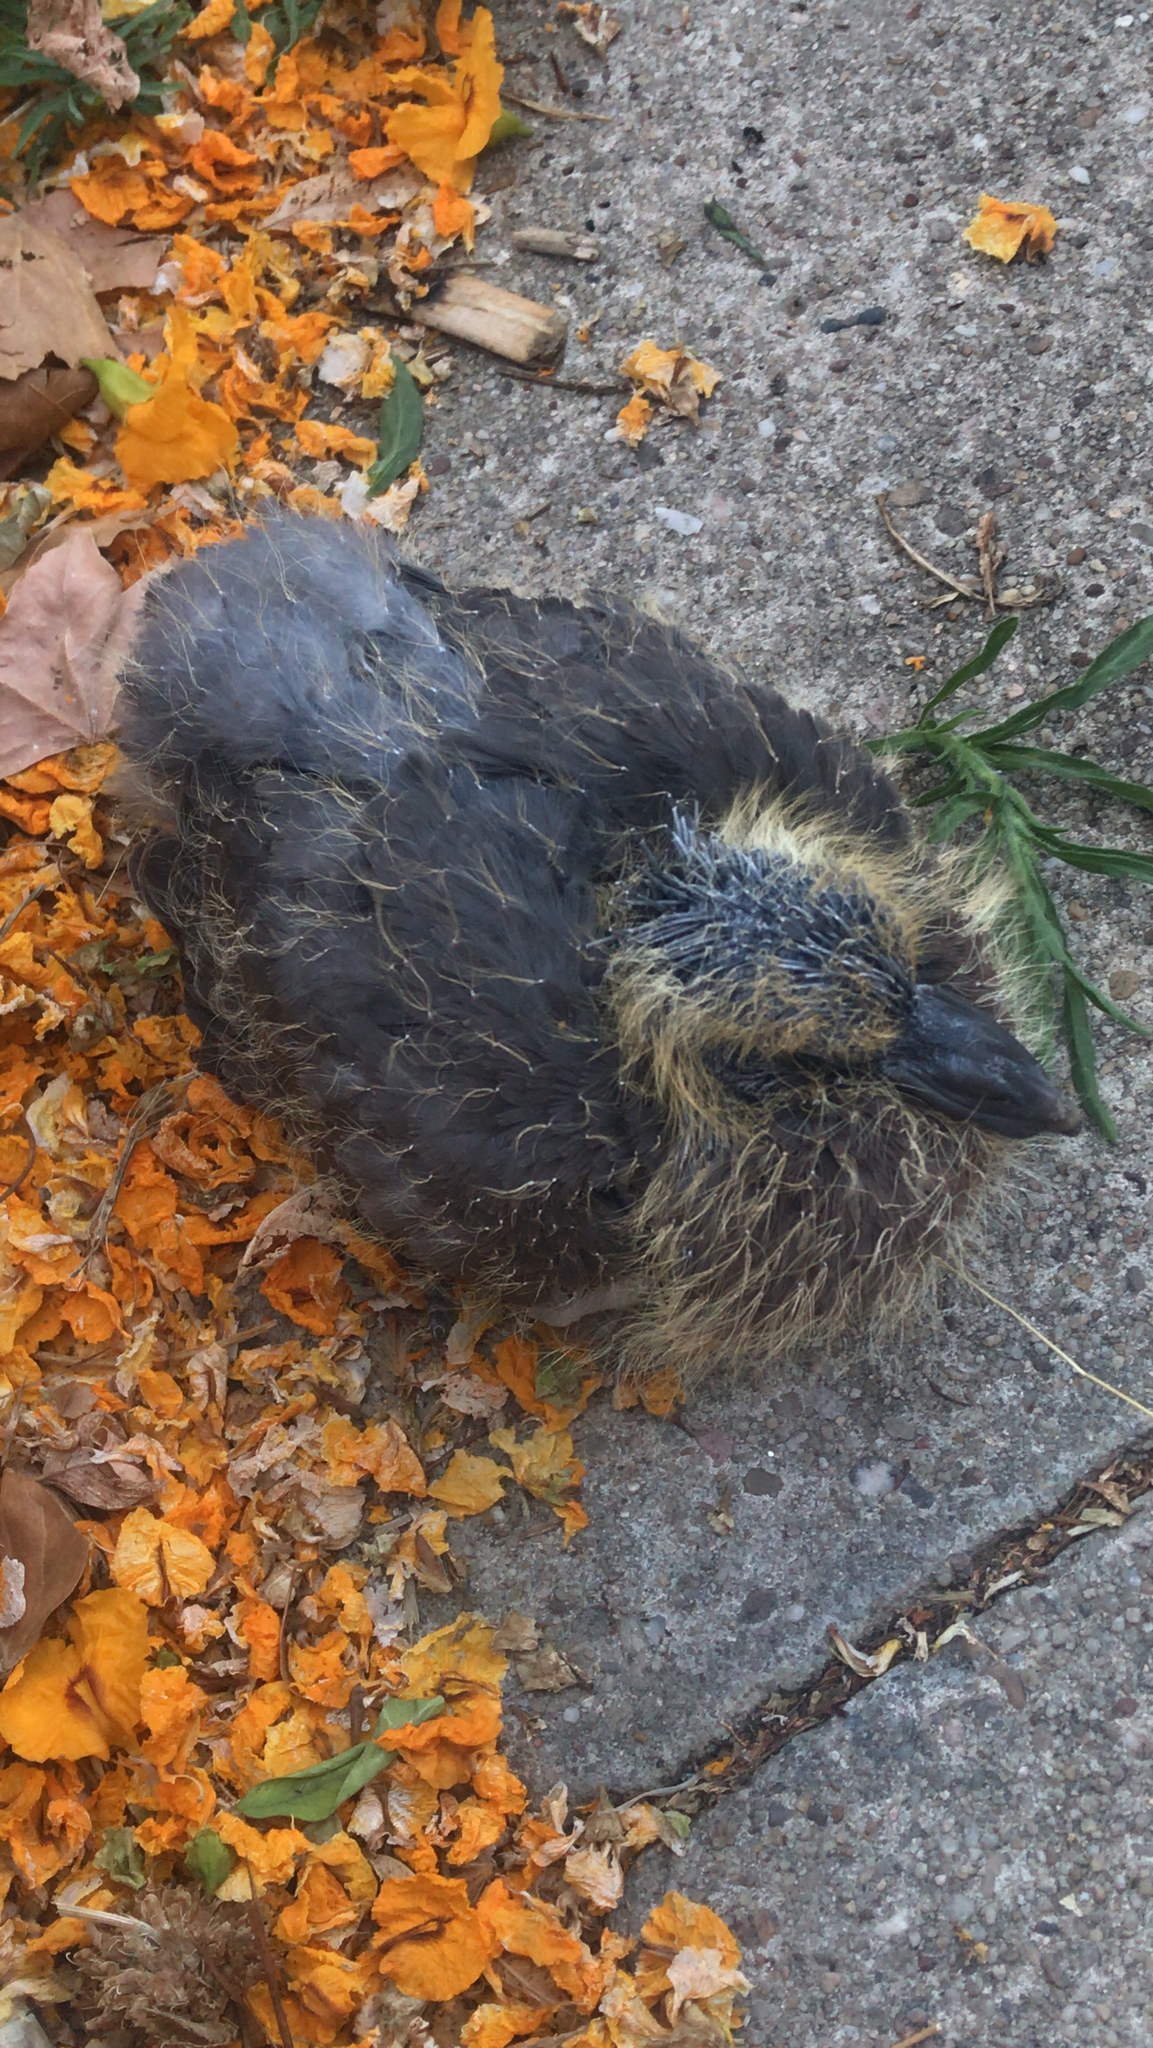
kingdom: Animalia
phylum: Chordata
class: Aves
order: Columbiformes
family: Columbidae
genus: Columba
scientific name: Columba livia
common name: Rock pigeon
